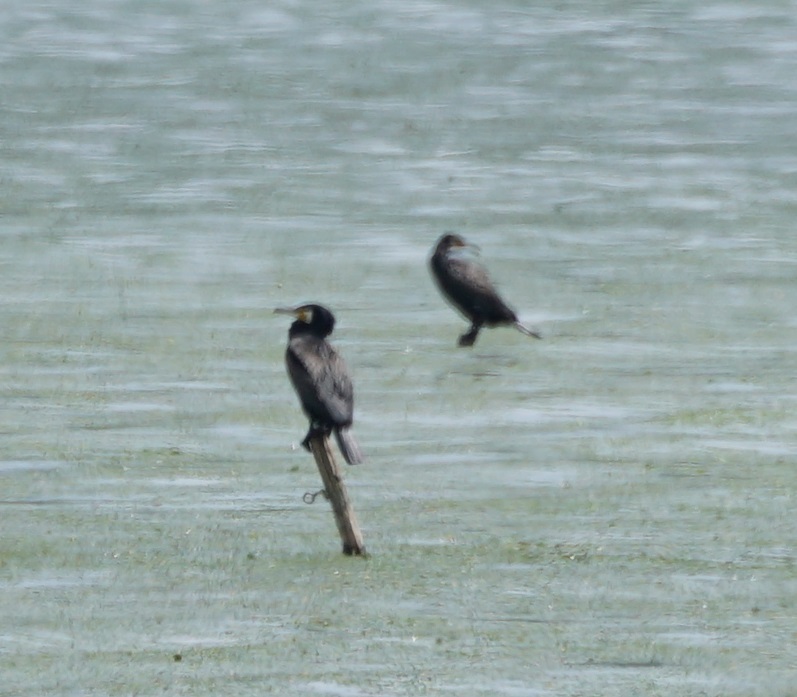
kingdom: Animalia
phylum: Chordata
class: Aves
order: Suliformes
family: Phalacrocoracidae
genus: Phalacrocorax
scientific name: Phalacrocorax carbo
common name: Great cormorant
